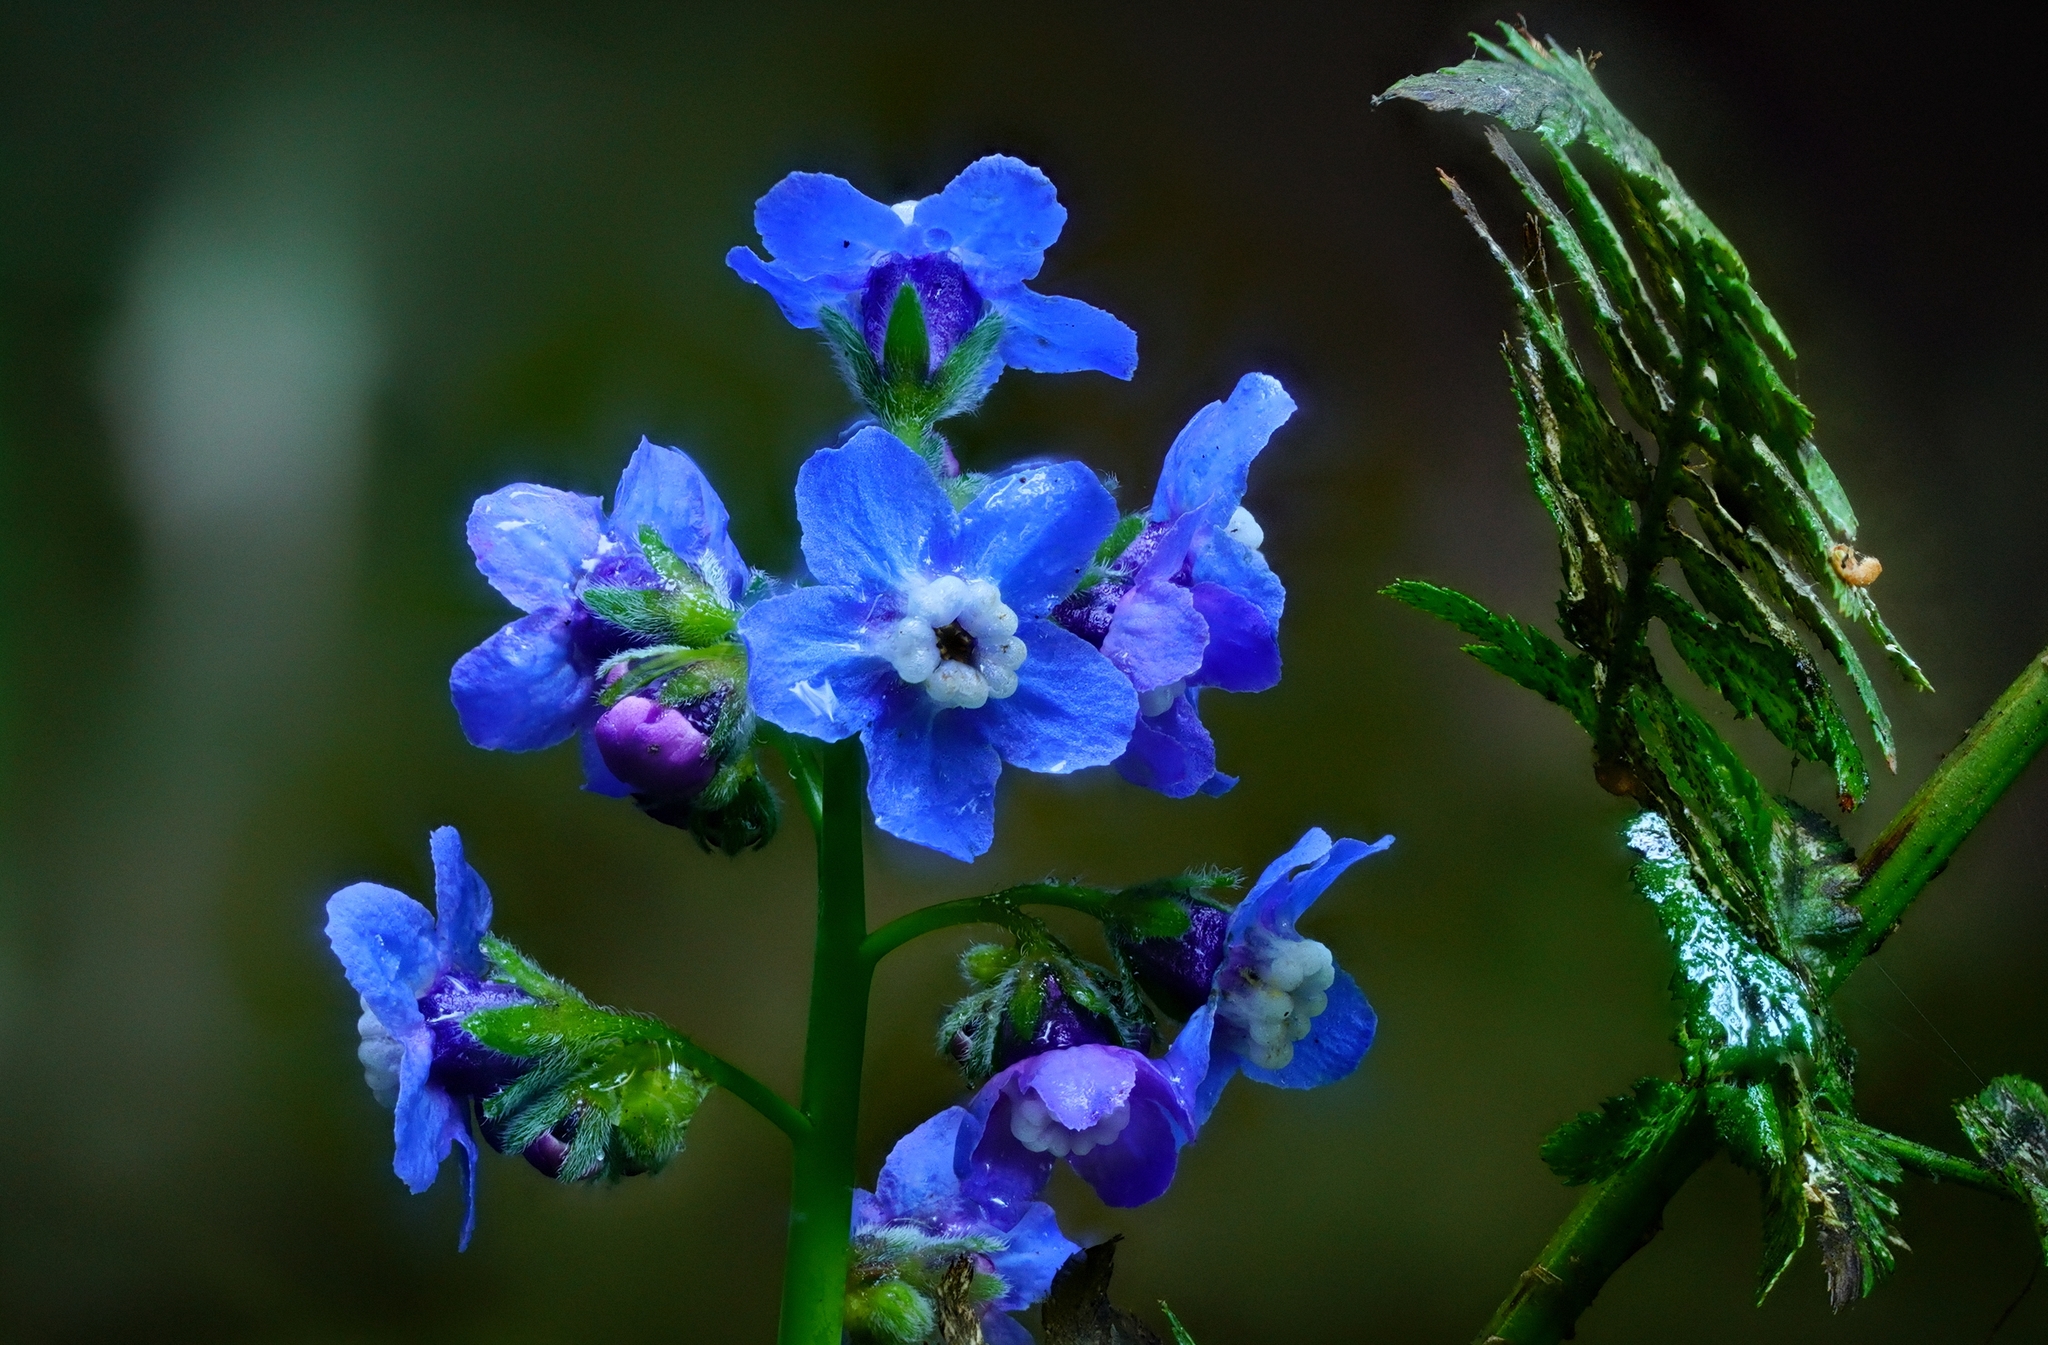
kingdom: Plantae
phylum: Tracheophyta
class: Magnoliopsida
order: Boraginales
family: Boraginaceae
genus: Adelinia
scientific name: Adelinia grande
